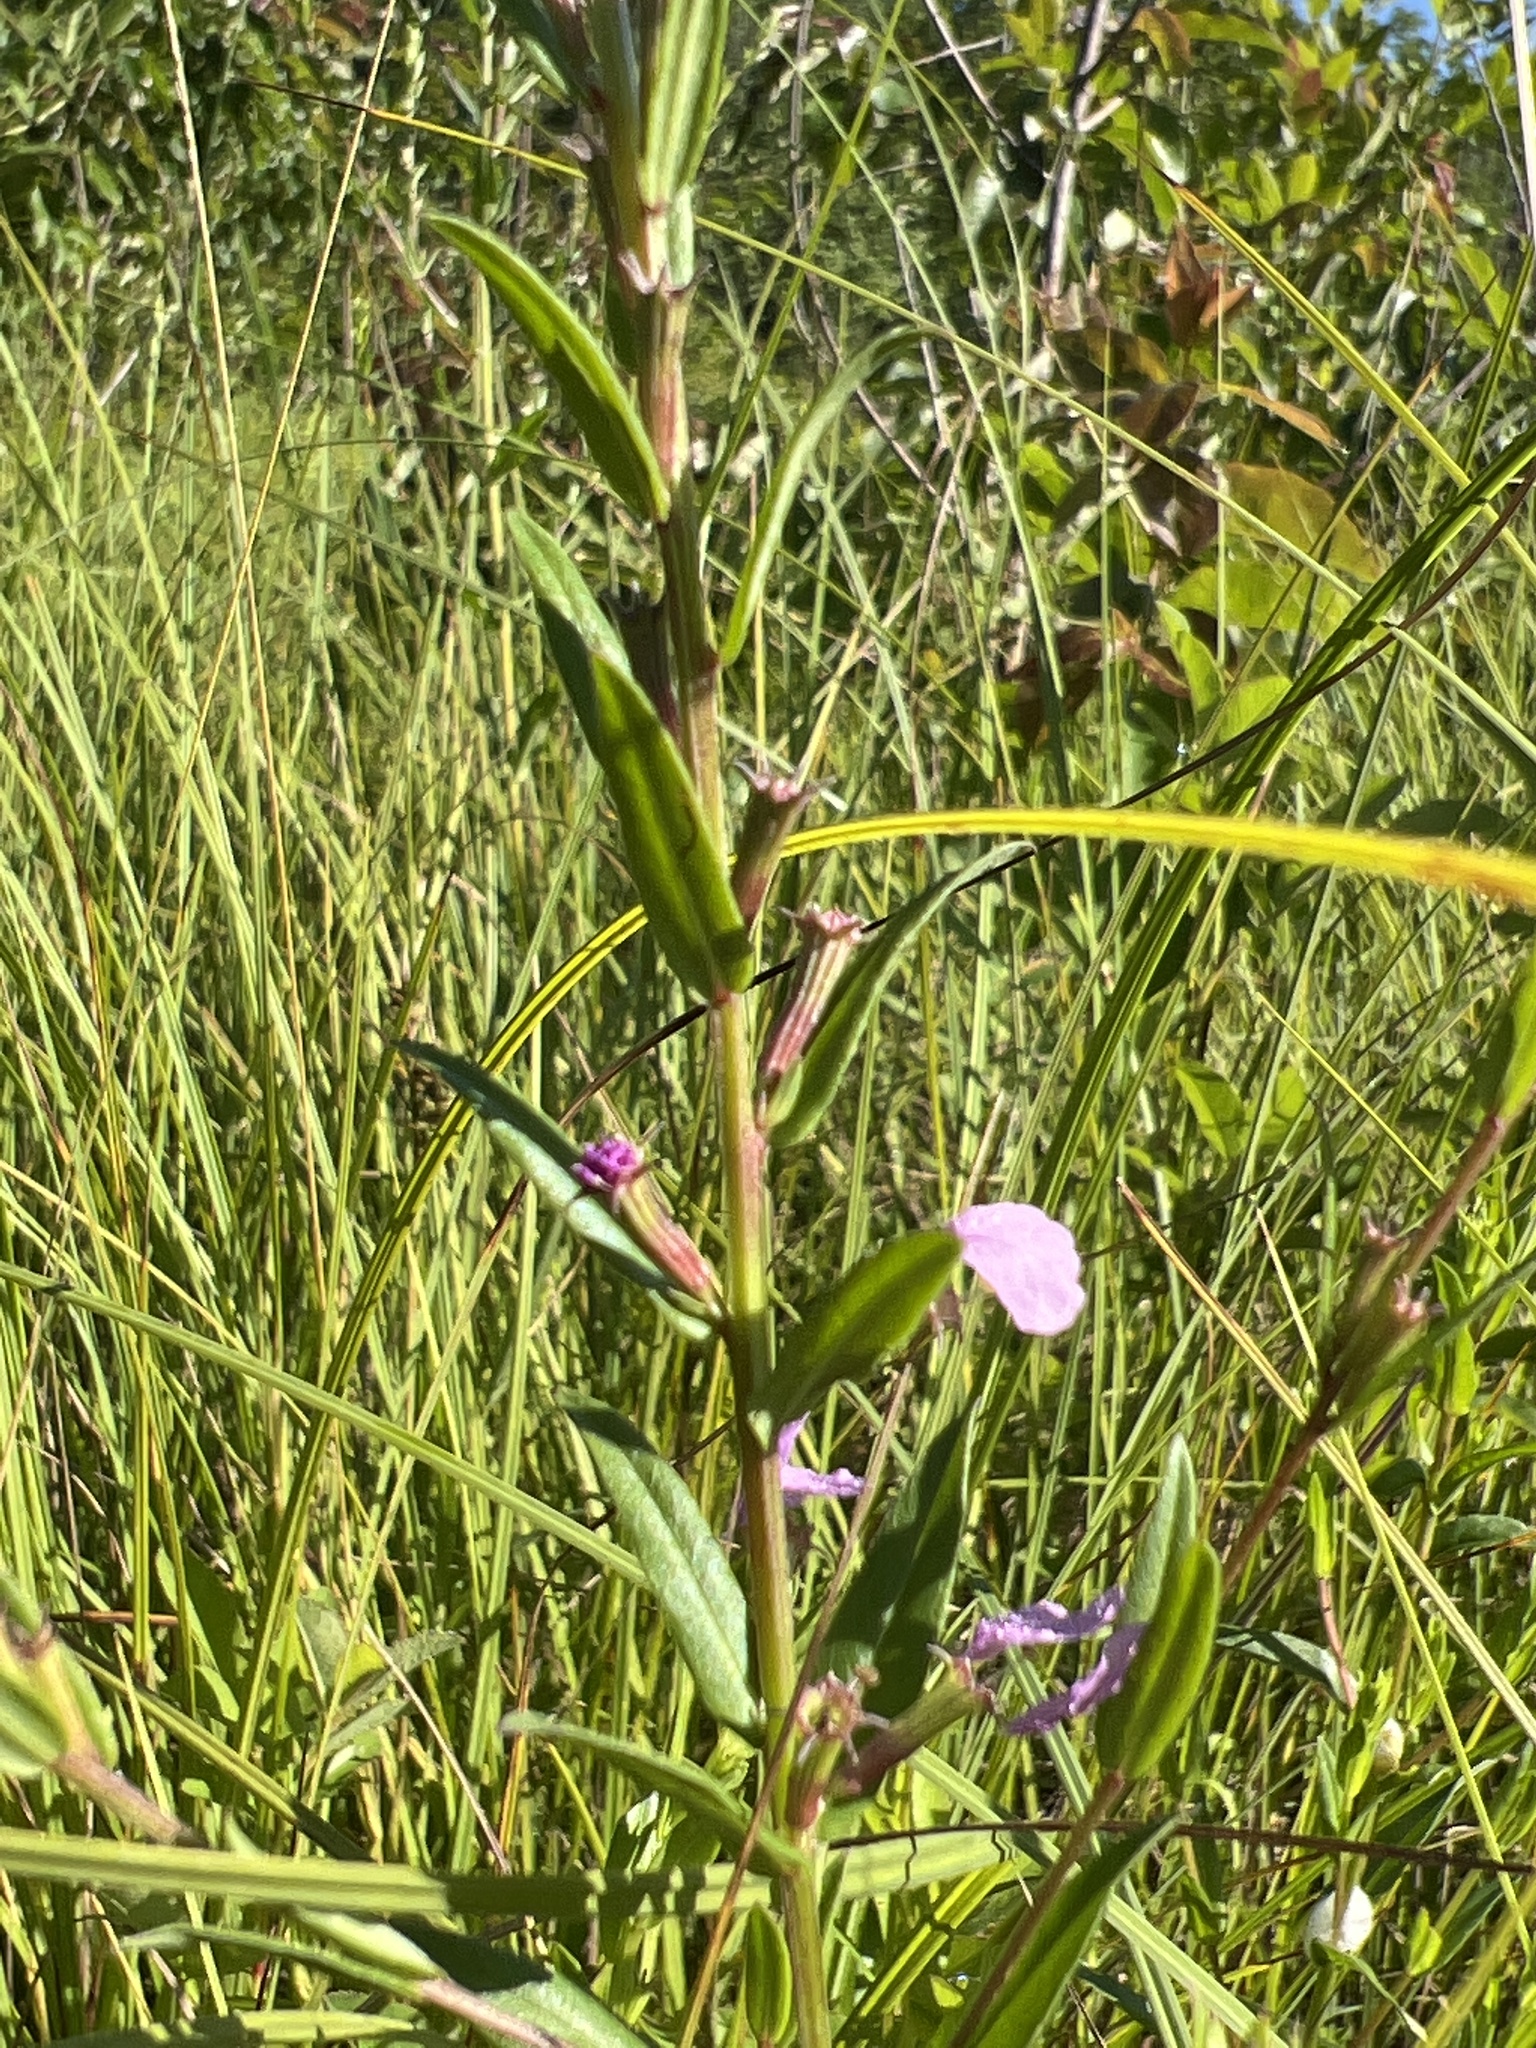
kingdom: Plantae
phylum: Tracheophyta
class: Magnoliopsida
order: Myrtales
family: Lythraceae
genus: Lythrum
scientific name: Lythrum alatum
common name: Winged loosestrife
